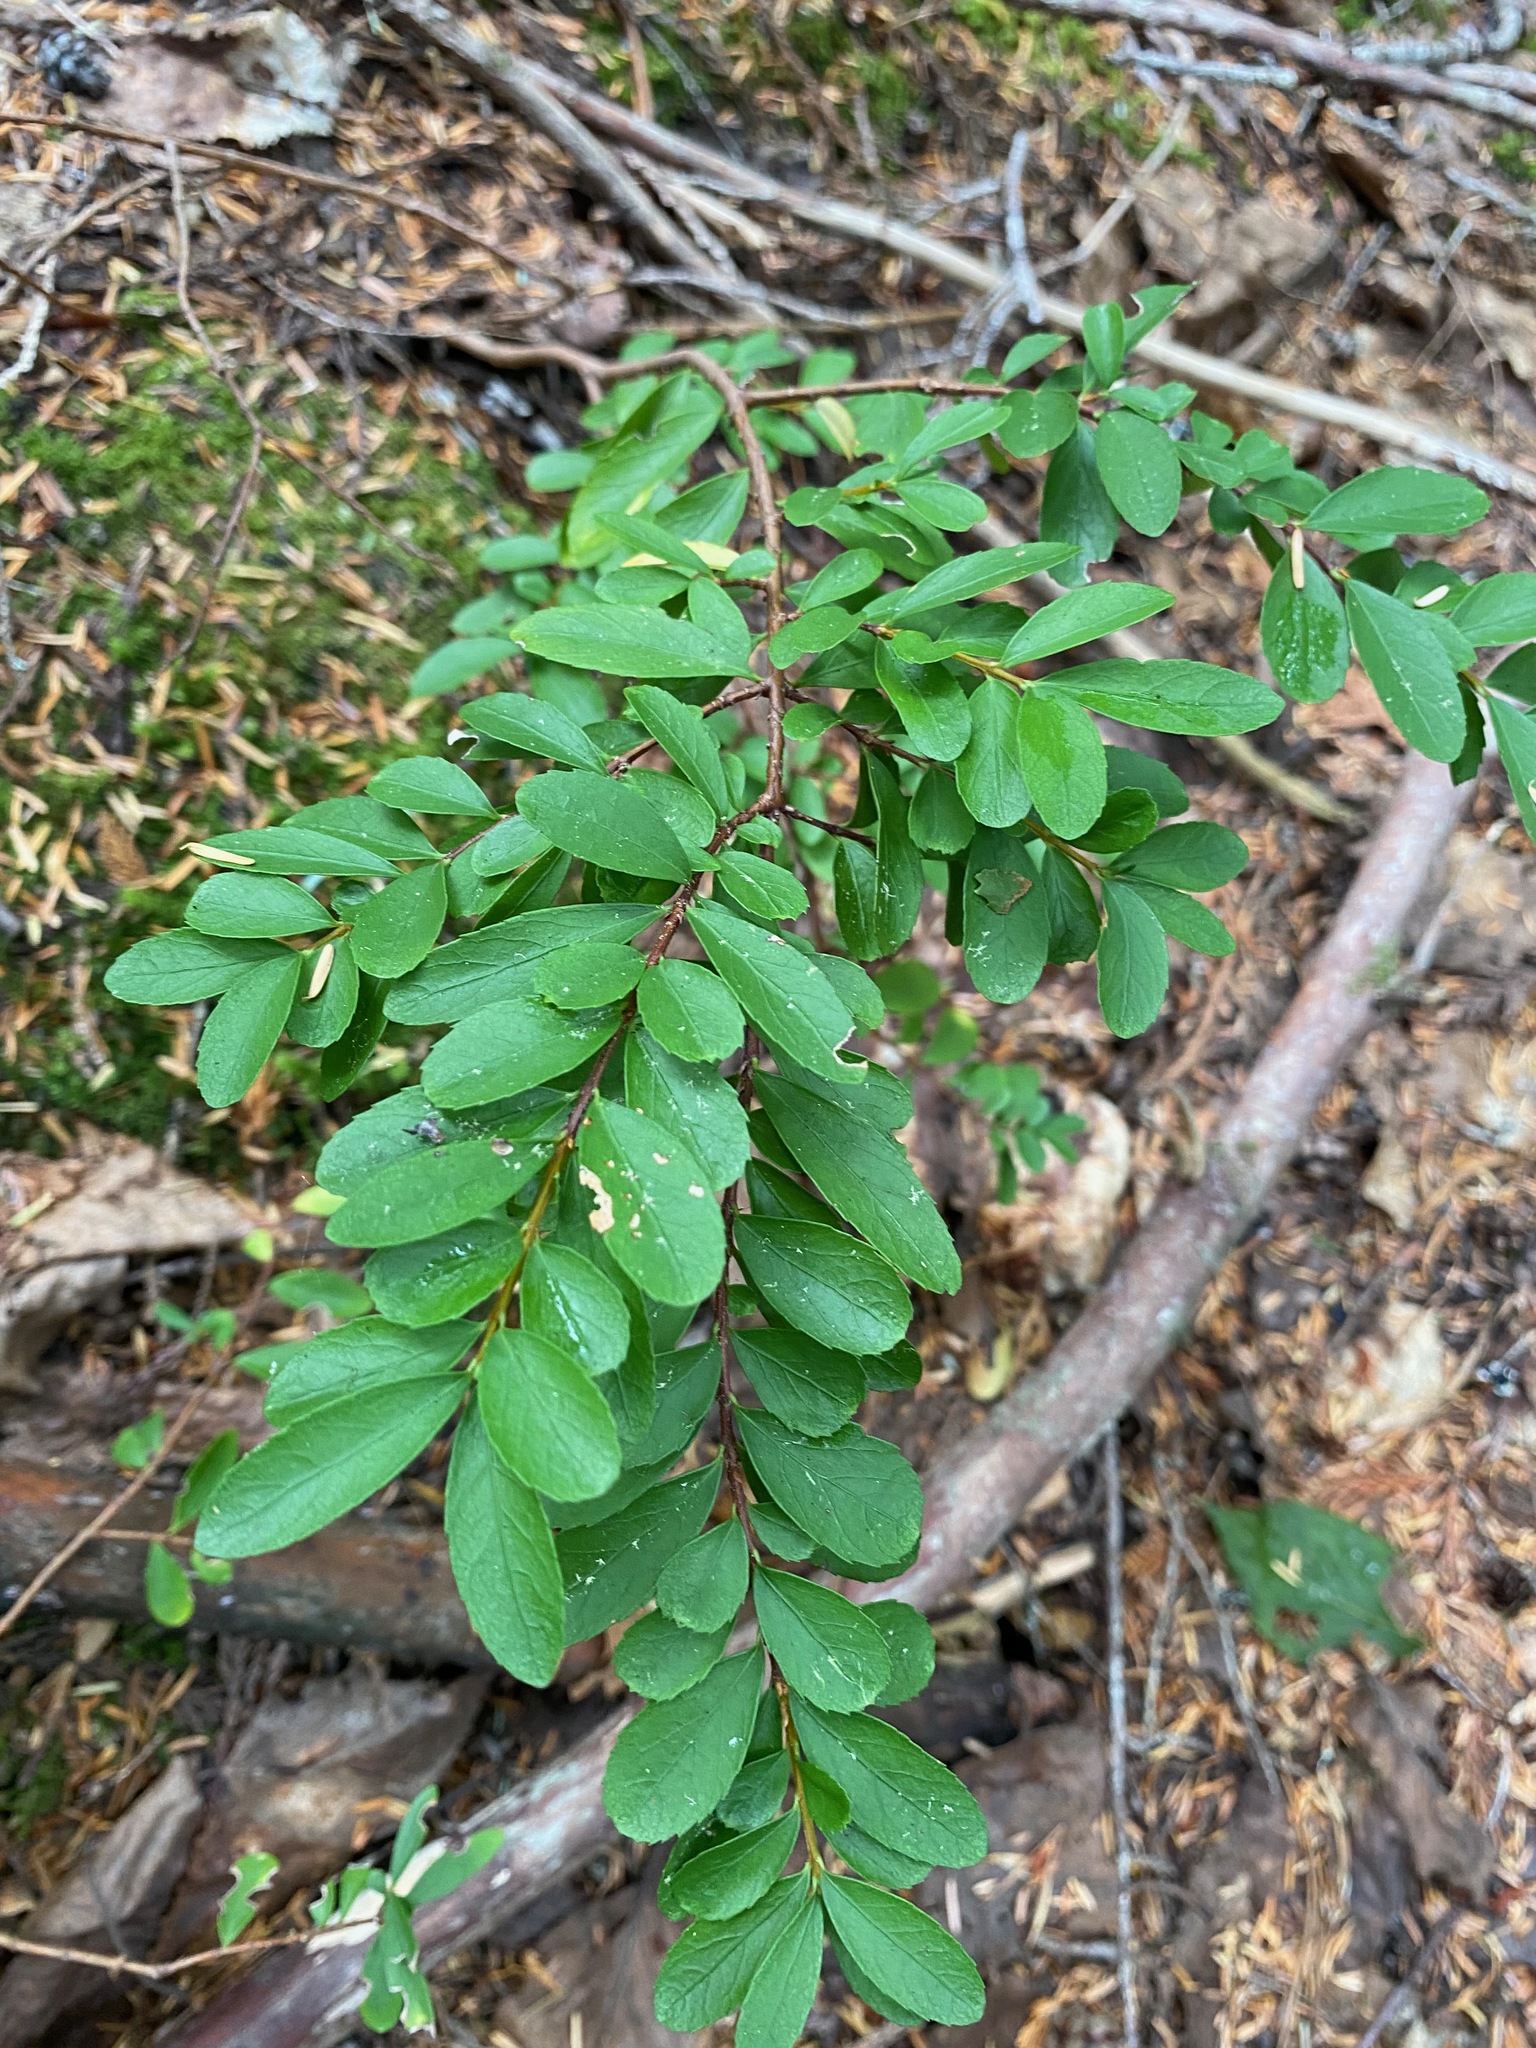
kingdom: Plantae
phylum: Tracheophyta
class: Magnoliopsida
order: Celastrales
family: Celastraceae
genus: Paxistima
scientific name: Paxistima myrsinites
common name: Mountain-lover
